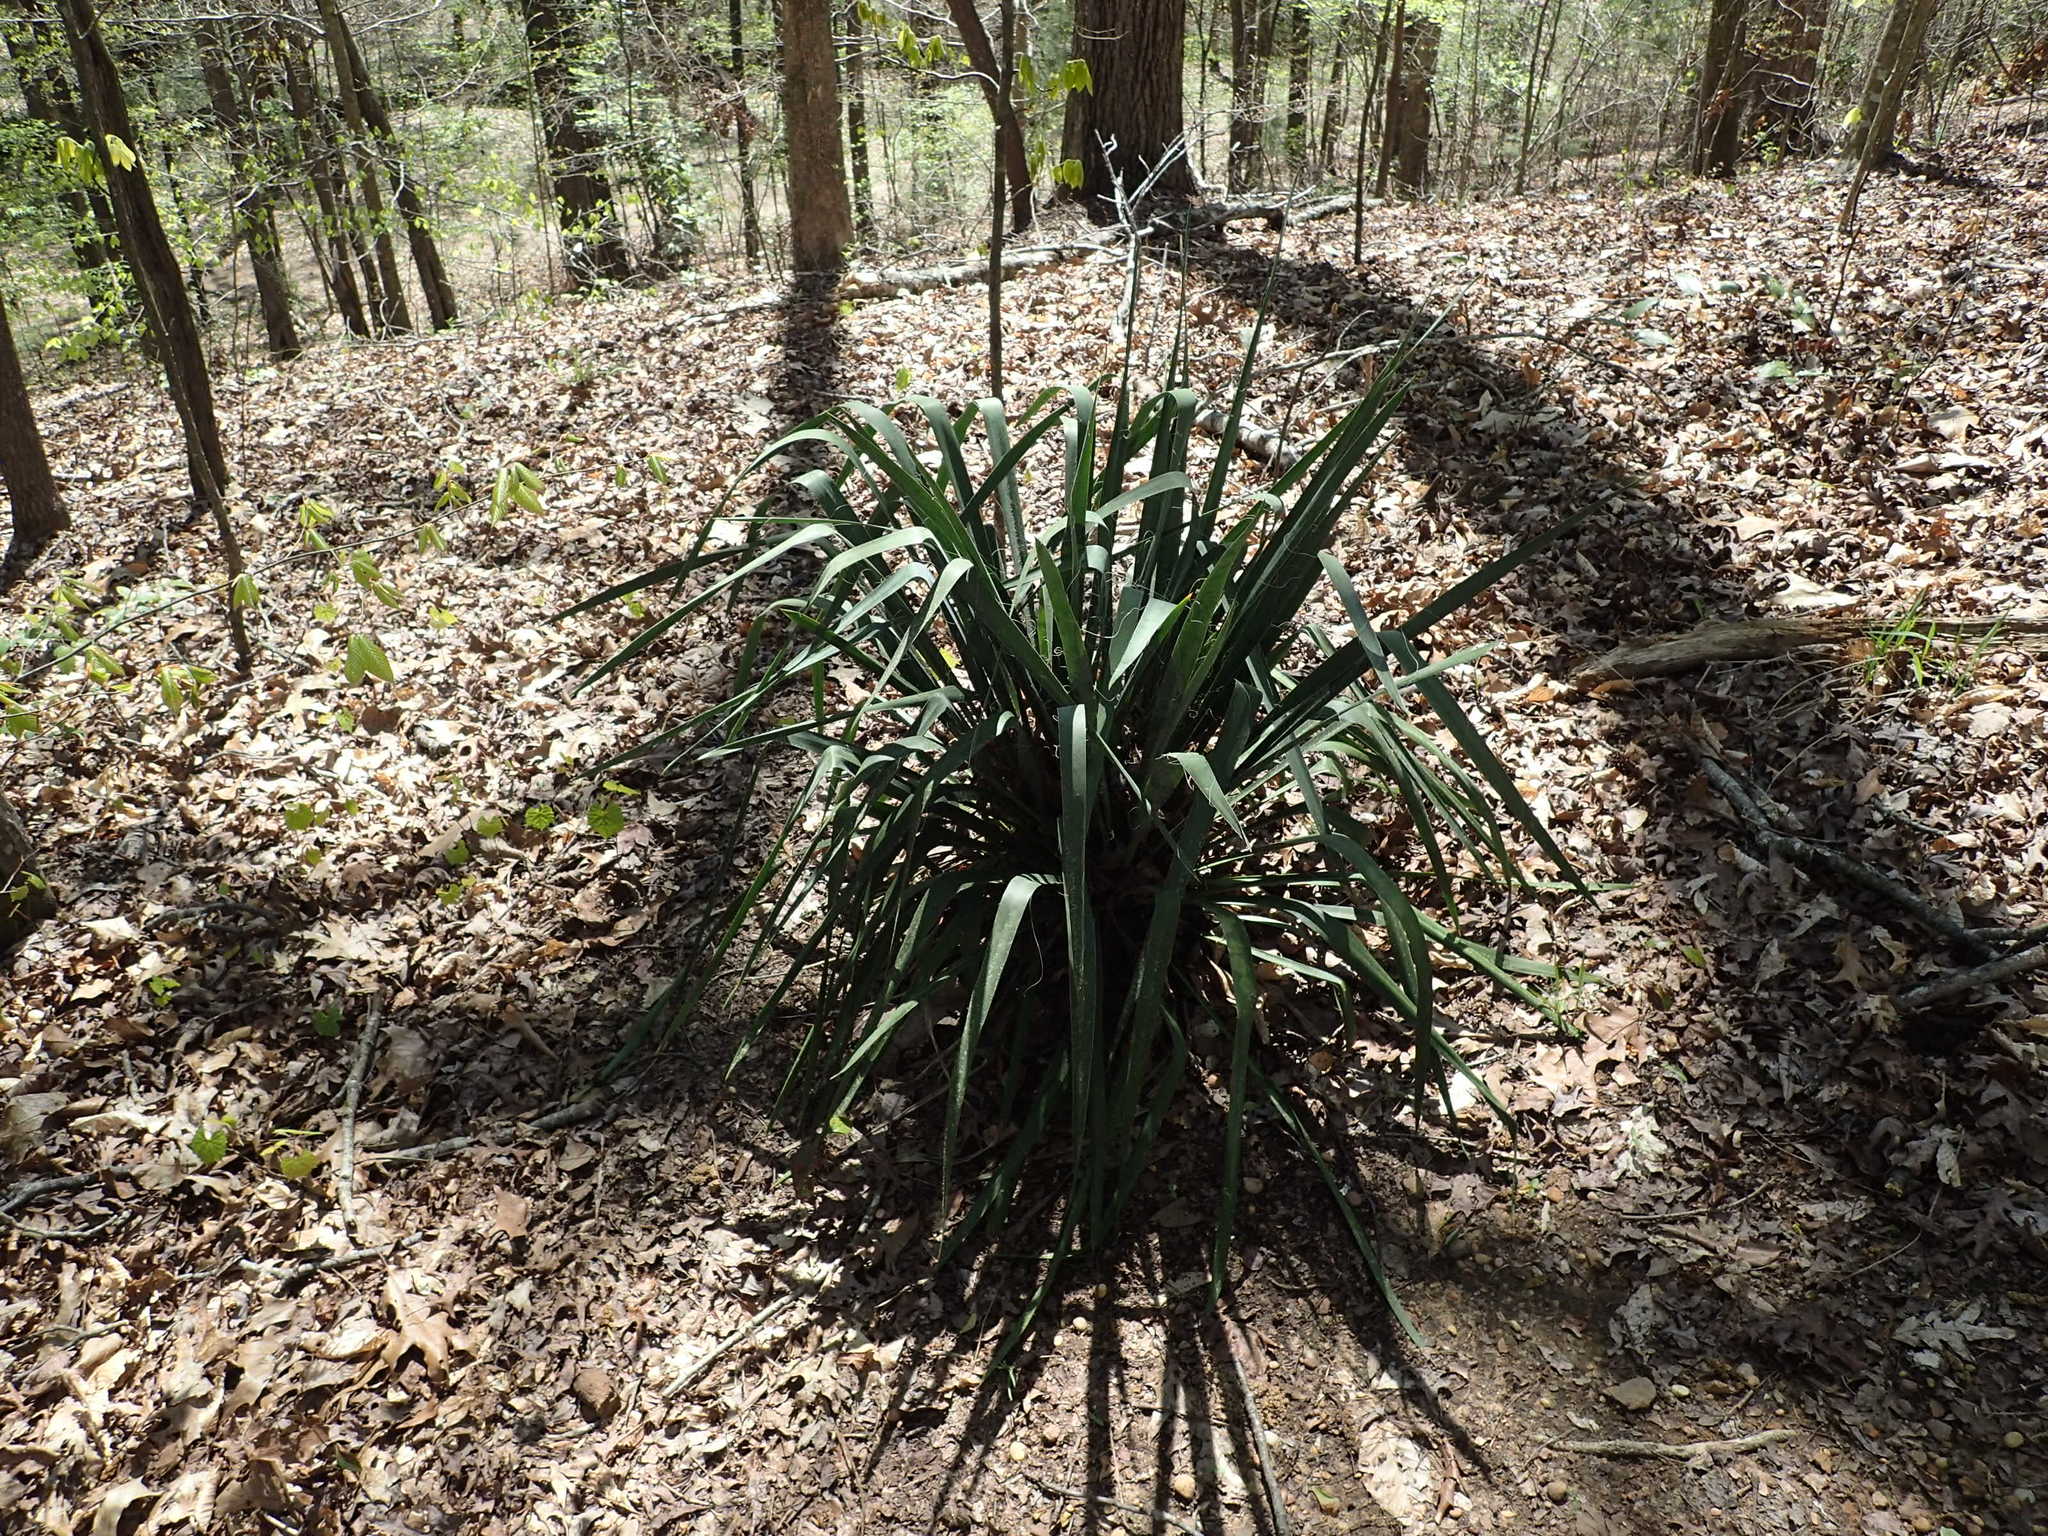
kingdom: Plantae
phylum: Tracheophyta
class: Liliopsida
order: Asparagales
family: Asparagaceae
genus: Yucca
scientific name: Yucca filamentosa
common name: Adam's-needle
